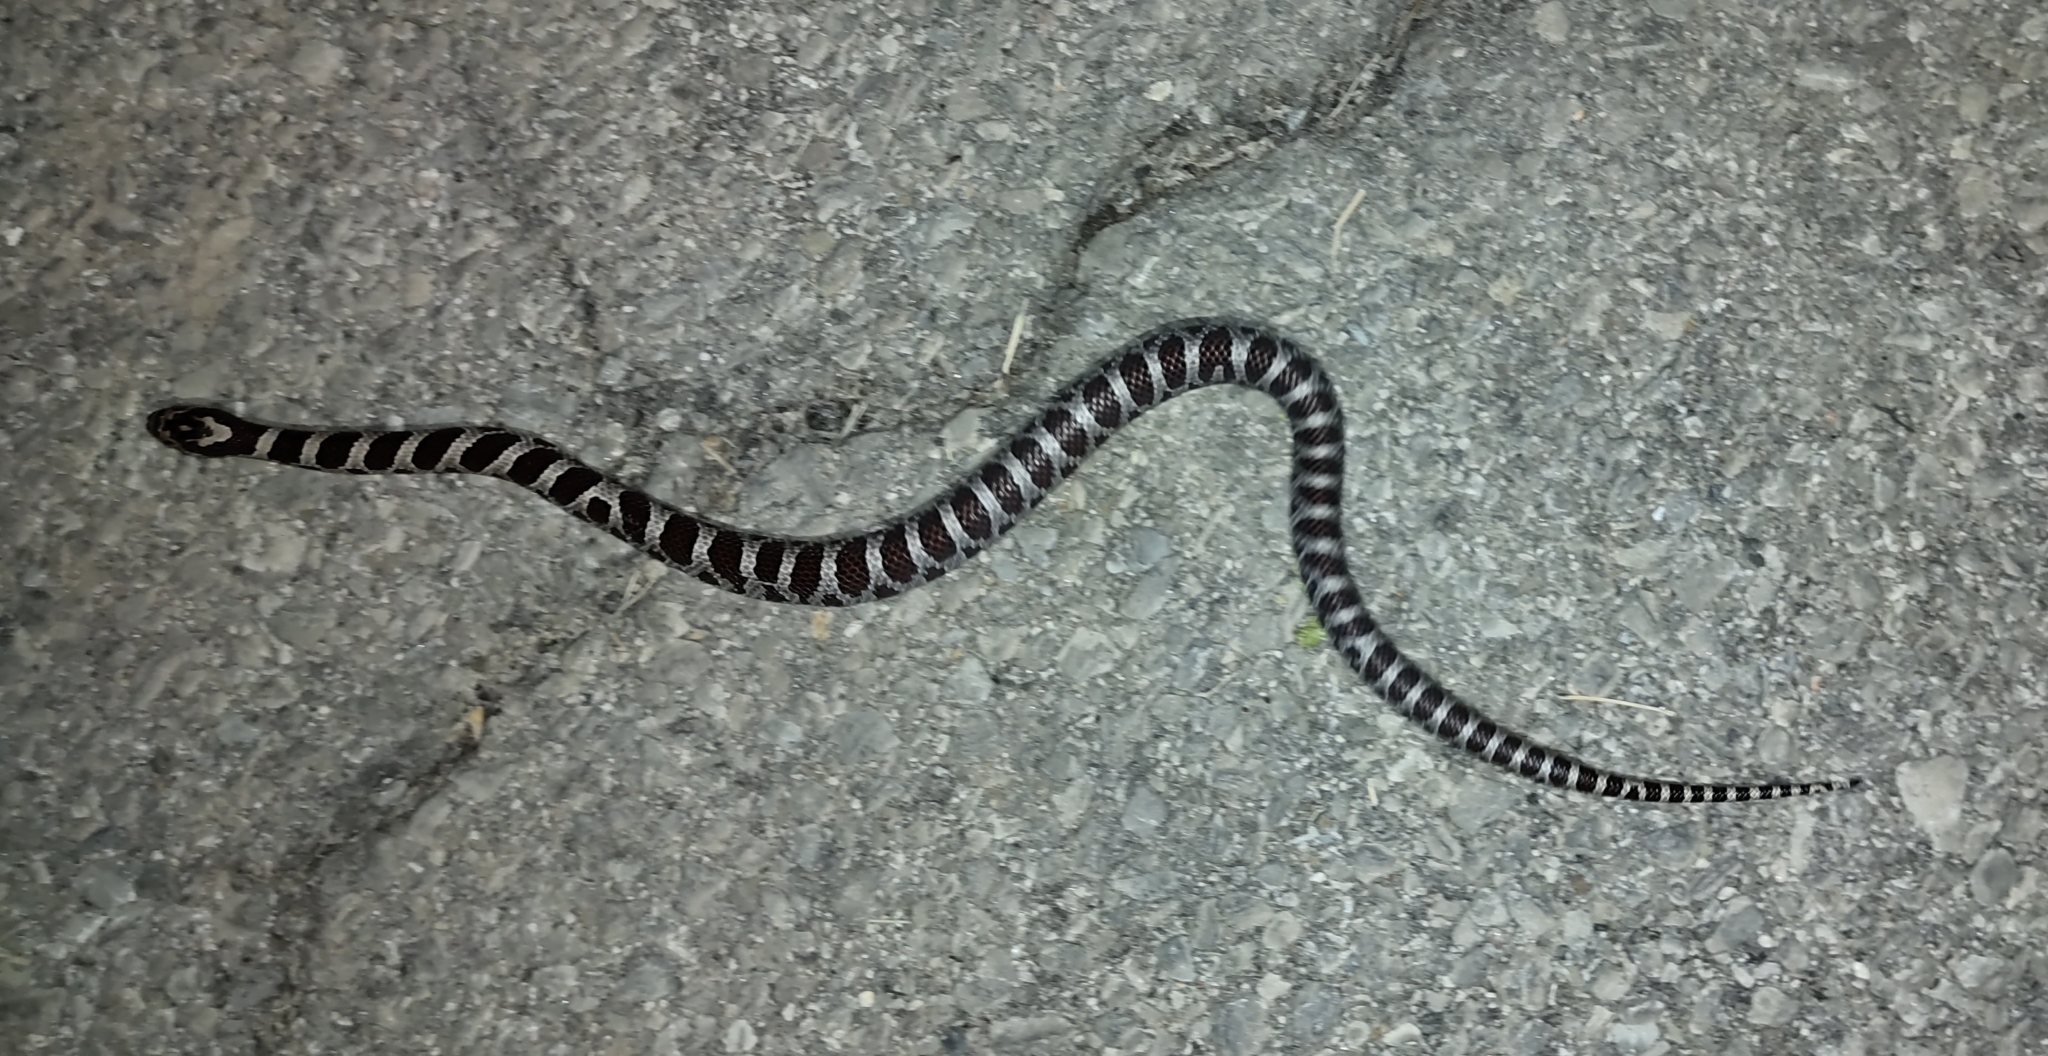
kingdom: Animalia
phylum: Chordata
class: Squamata
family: Colubridae
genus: Lampropeltis
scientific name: Lampropeltis triangulum
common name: Eastern milksnake
